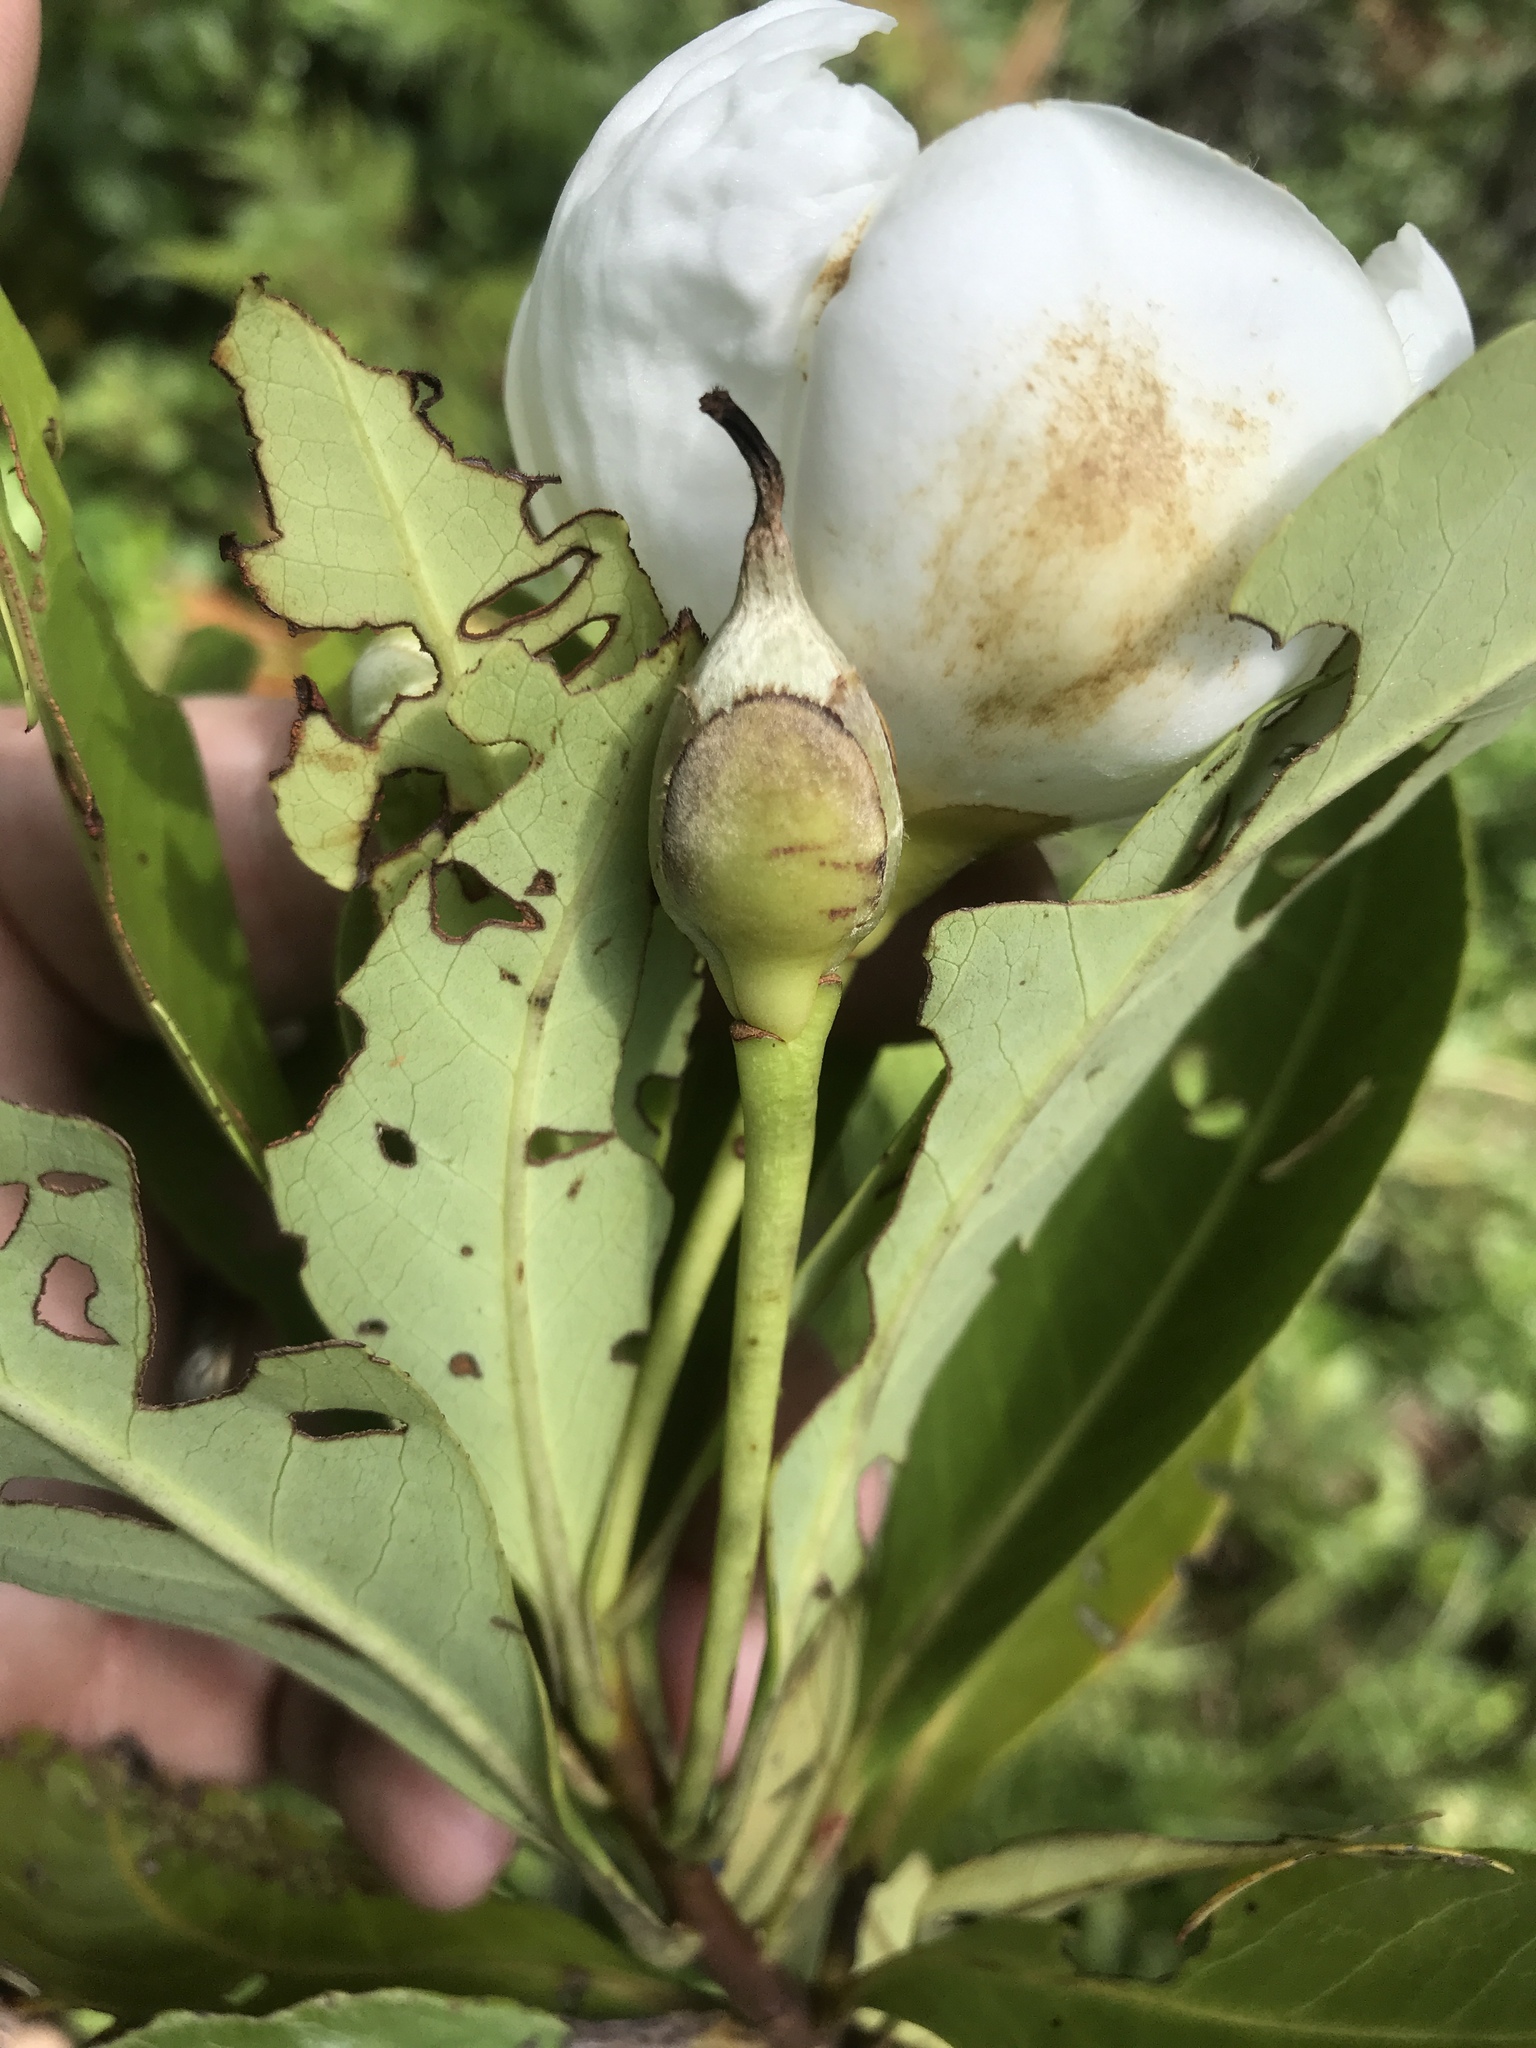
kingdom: Plantae
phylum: Tracheophyta
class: Magnoliopsida
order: Ericales
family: Theaceae
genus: Gordonia
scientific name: Gordonia lasianthus
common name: Loblolly bay
